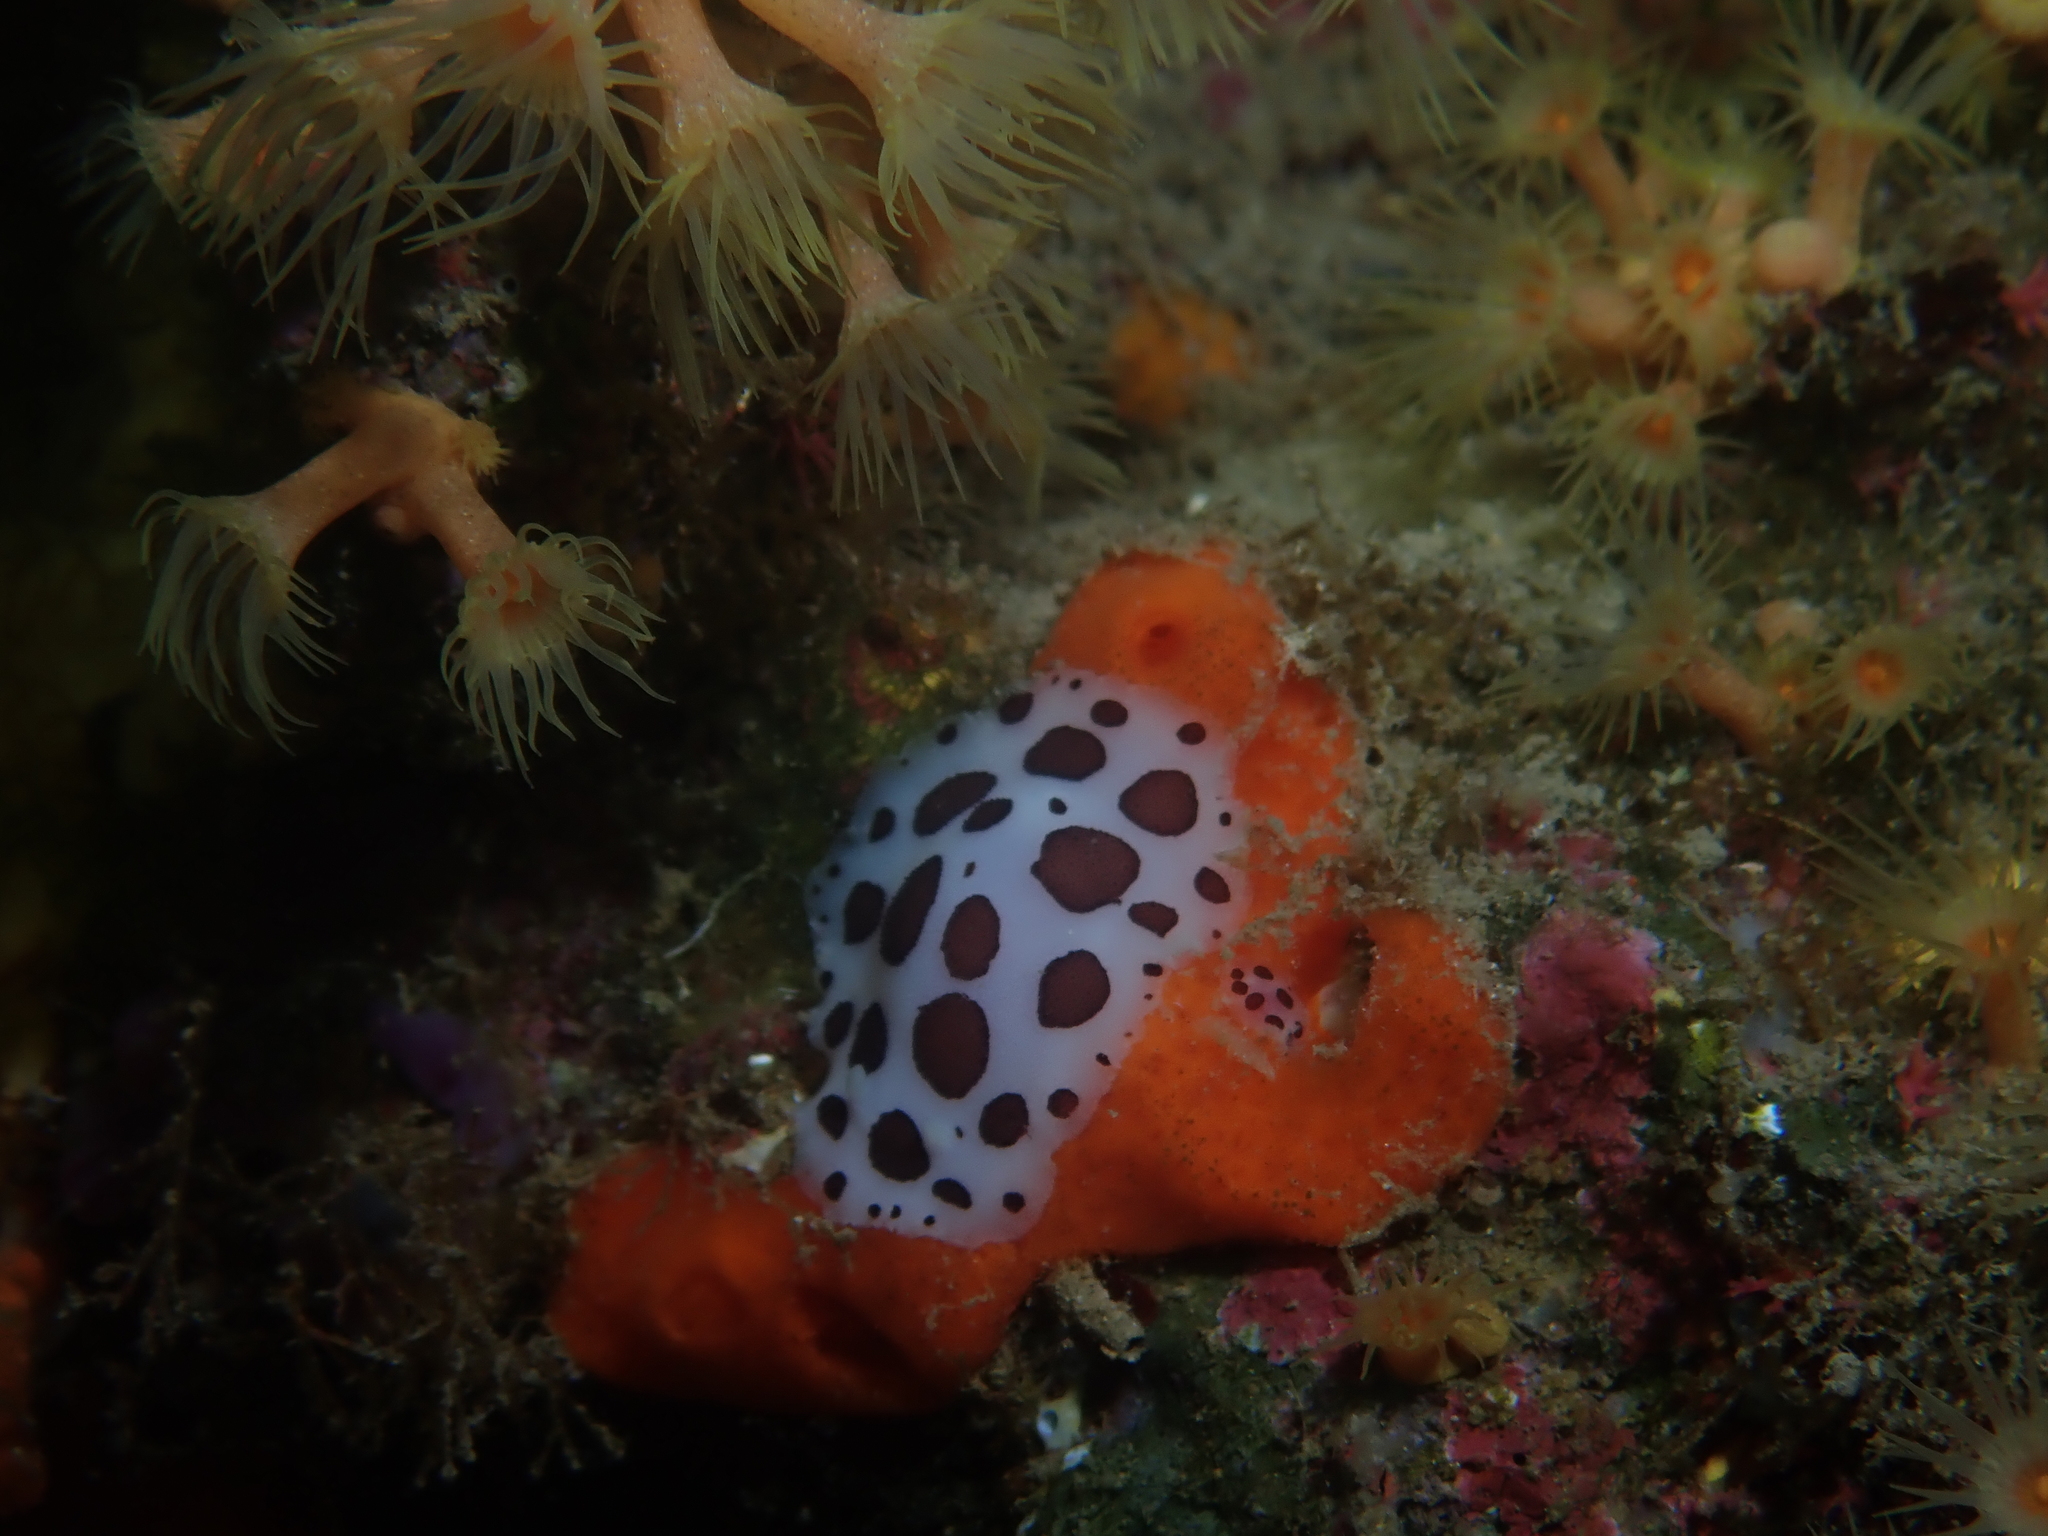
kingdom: Animalia
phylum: Mollusca
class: Gastropoda
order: Nudibranchia
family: Discodorididae
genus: Peltodoris
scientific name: Peltodoris atromaculata
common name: Swiss cow nudibranch
